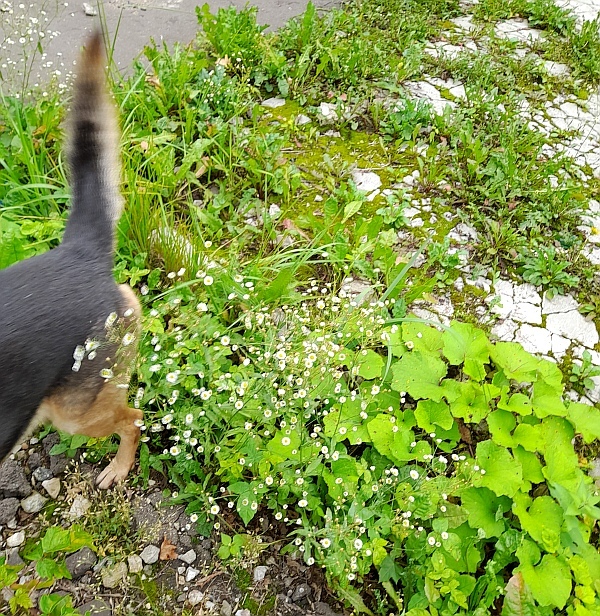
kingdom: Plantae
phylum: Tracheophyta
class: Magnoliopsida
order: Asterales
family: Asteraceae
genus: Tussilago
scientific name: Tussilago farfara
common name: Coltsfoot
